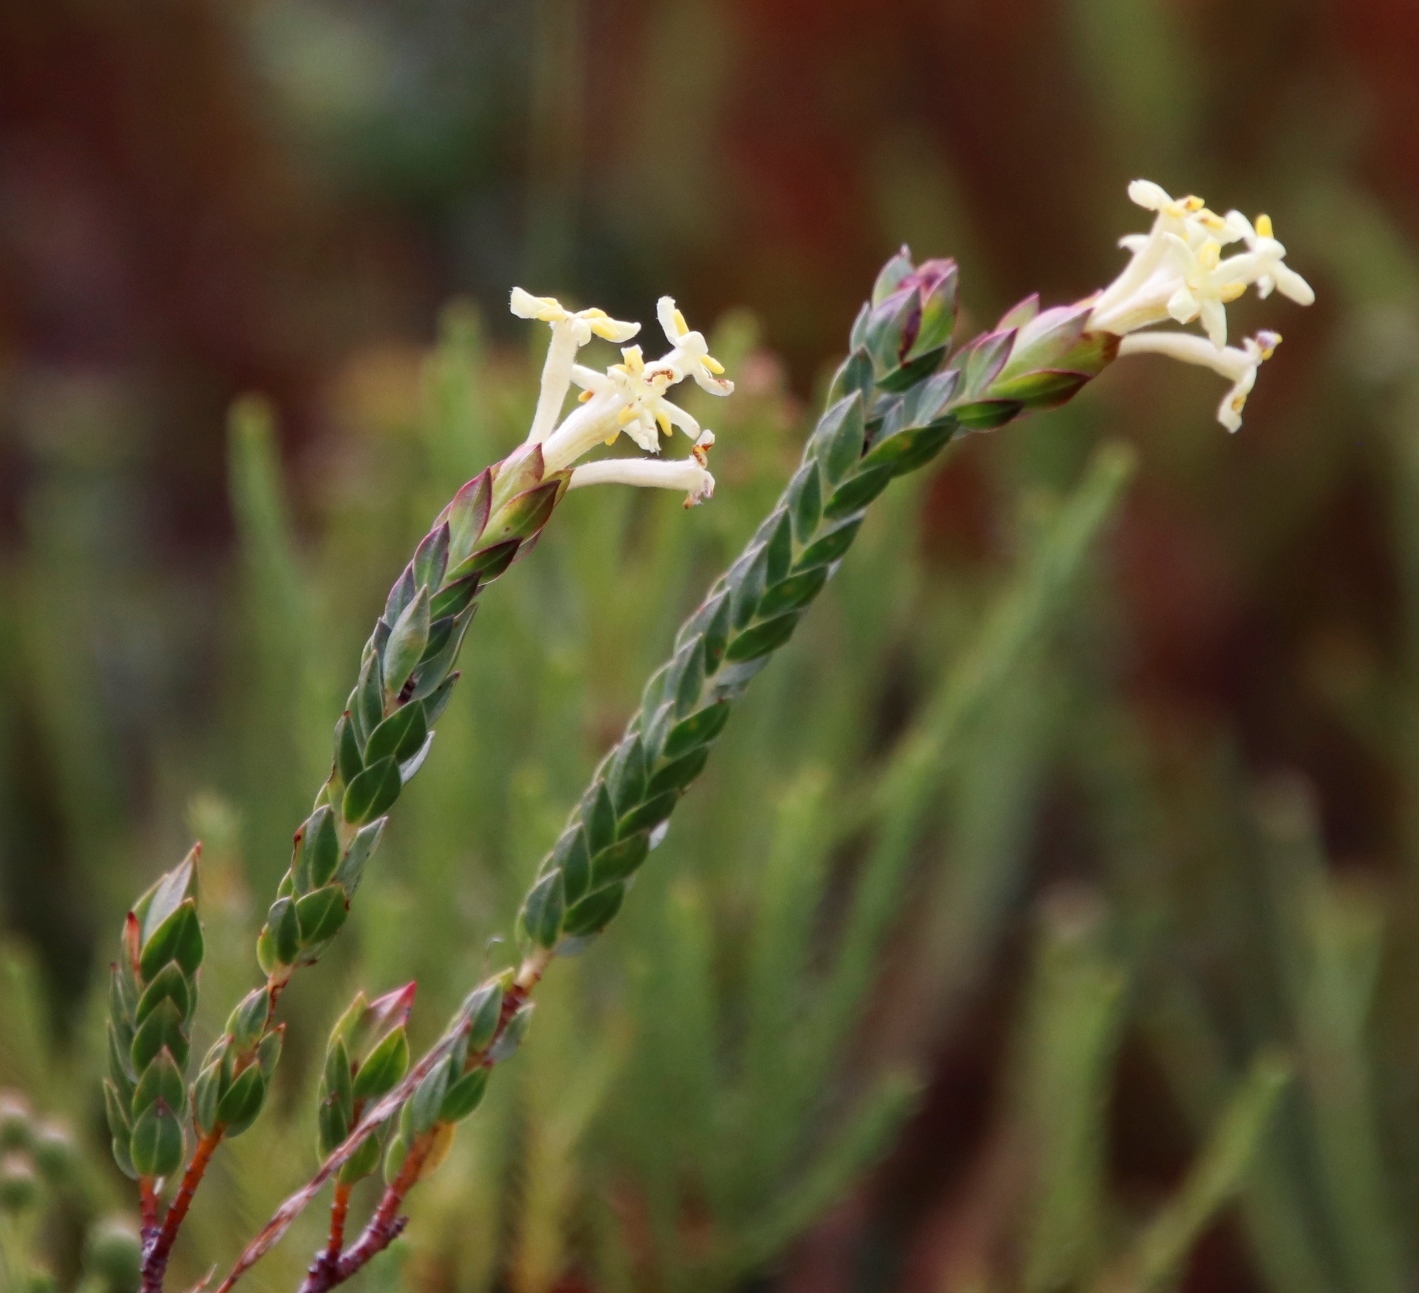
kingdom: Plantae
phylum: Tracheophyta
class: Magnoliopsida
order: Malvales
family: Thymelaeaceae
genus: Gnidia
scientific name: Gnidia oppositifolia
